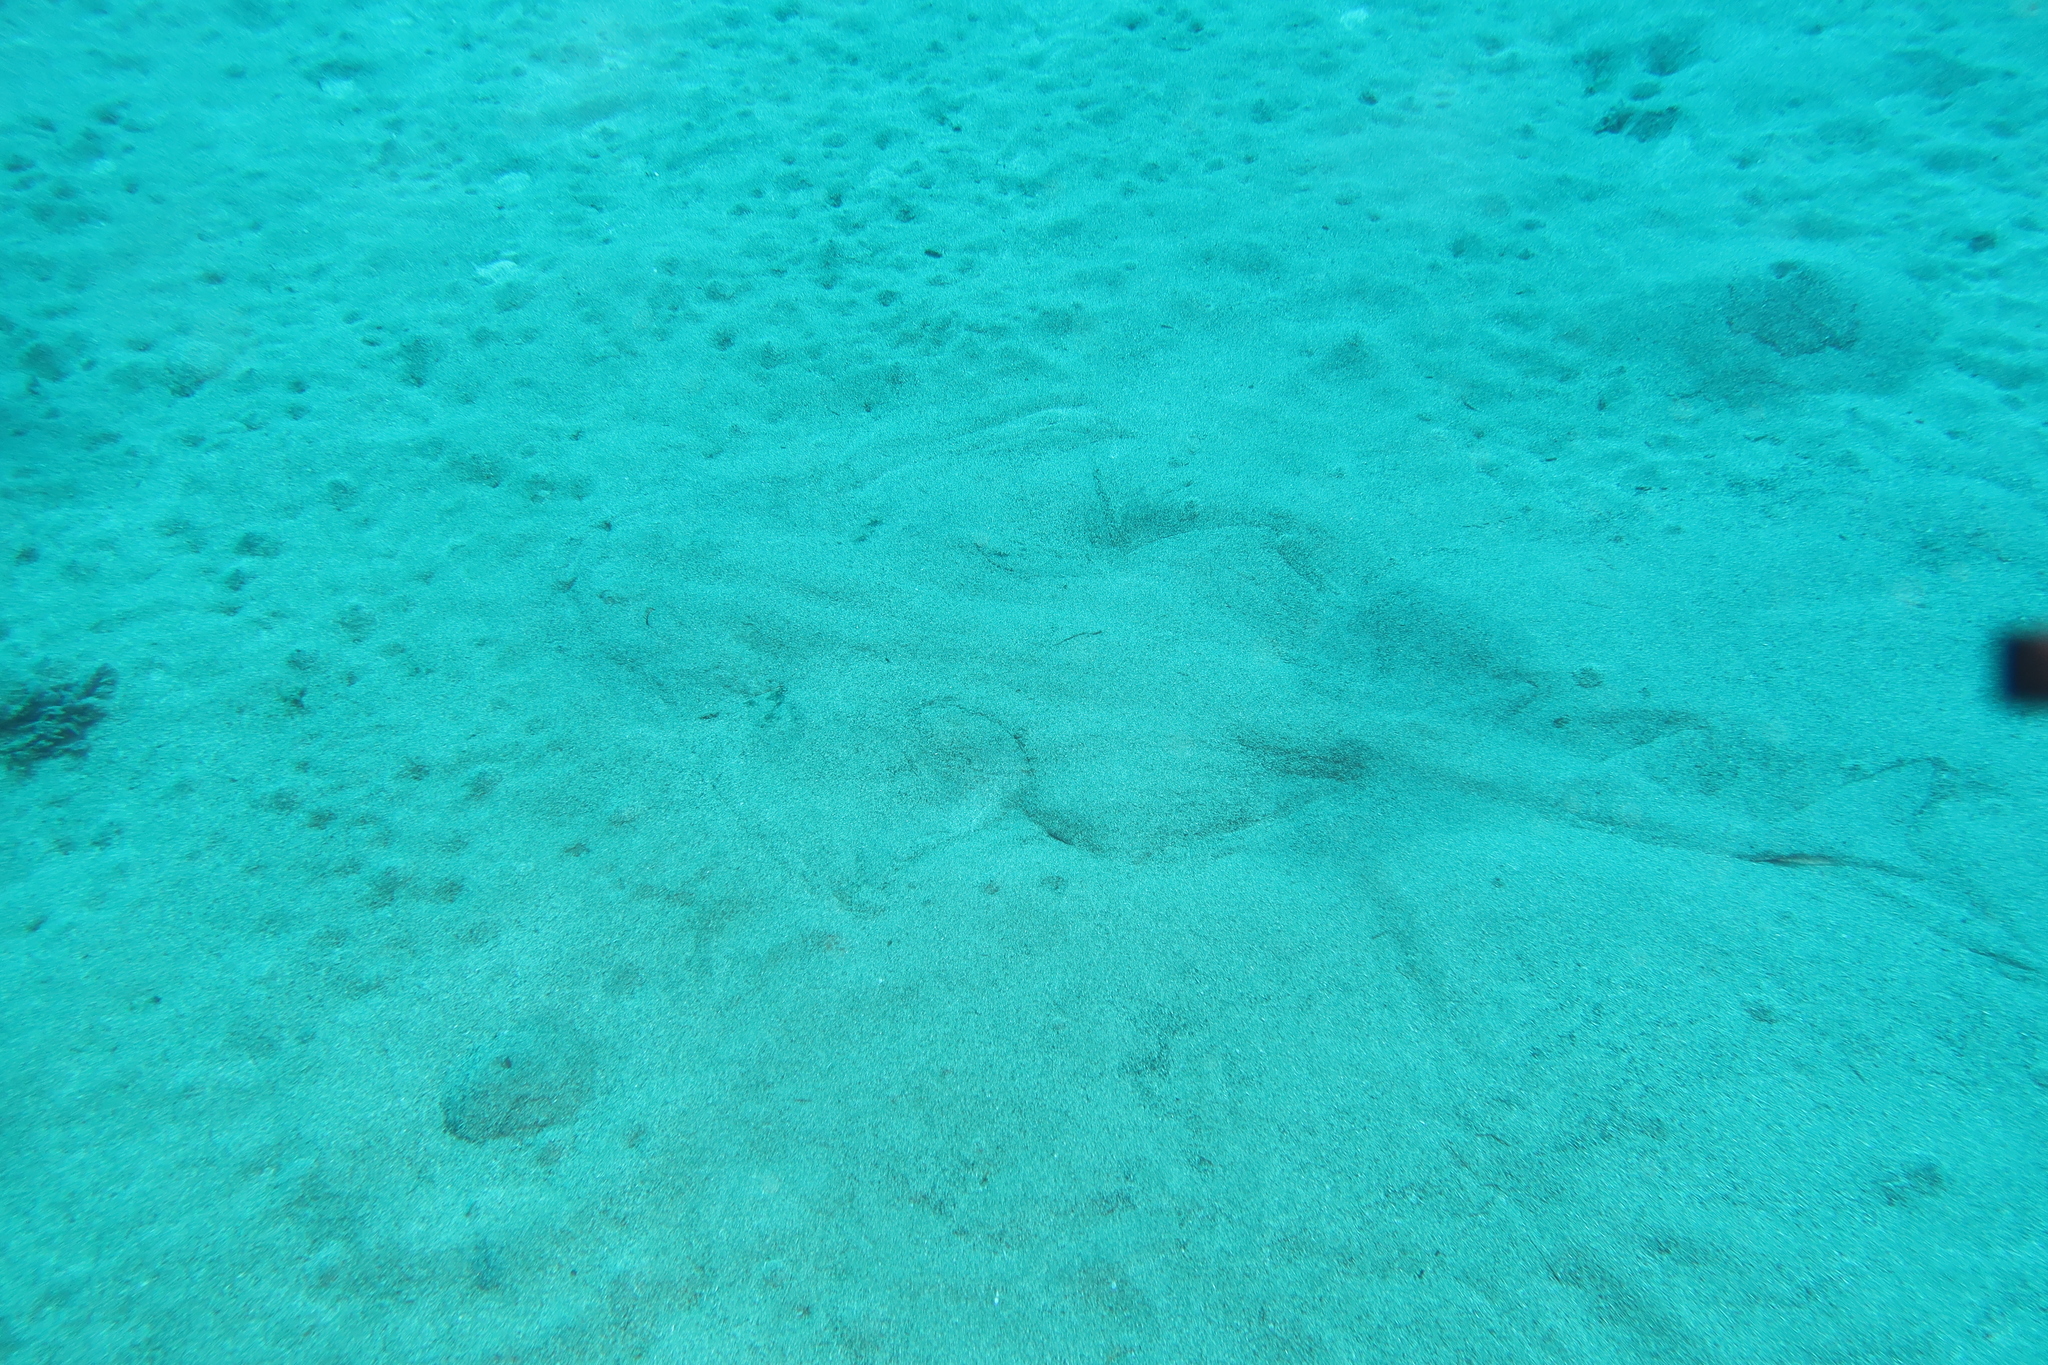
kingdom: Animalia
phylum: Chordata
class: Elasmobranchii
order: Squatiniformes
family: Squatinidae
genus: Squatina
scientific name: Squatina squatina
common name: Angel shark
